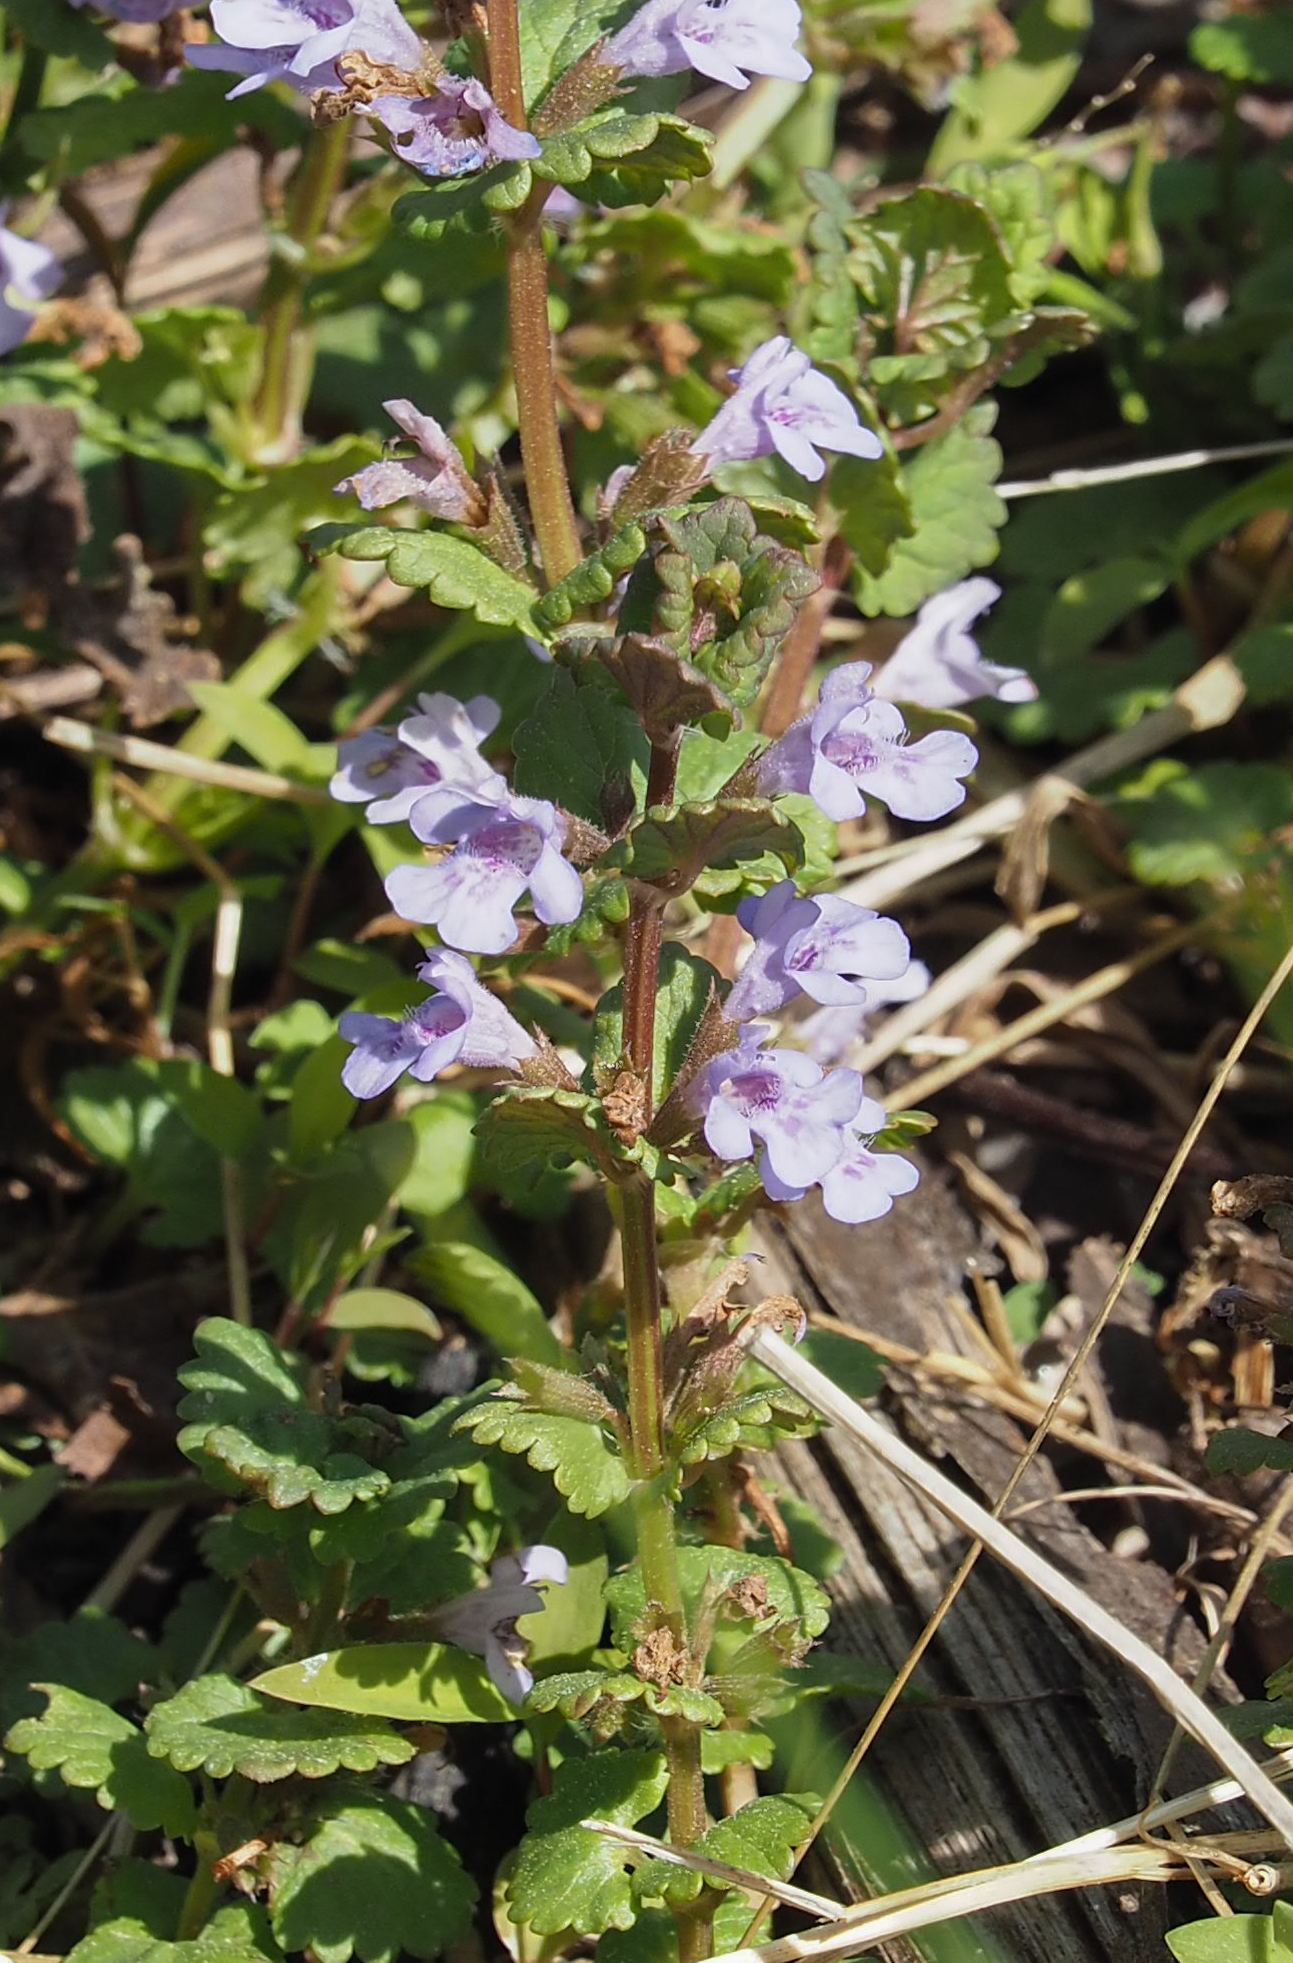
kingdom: Plantae
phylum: Tracheophyta
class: Magnoliopsida
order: Lamiales
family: Lamiaceae
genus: Glechoma
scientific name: Glechoma hederacea
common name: Ground ivy
